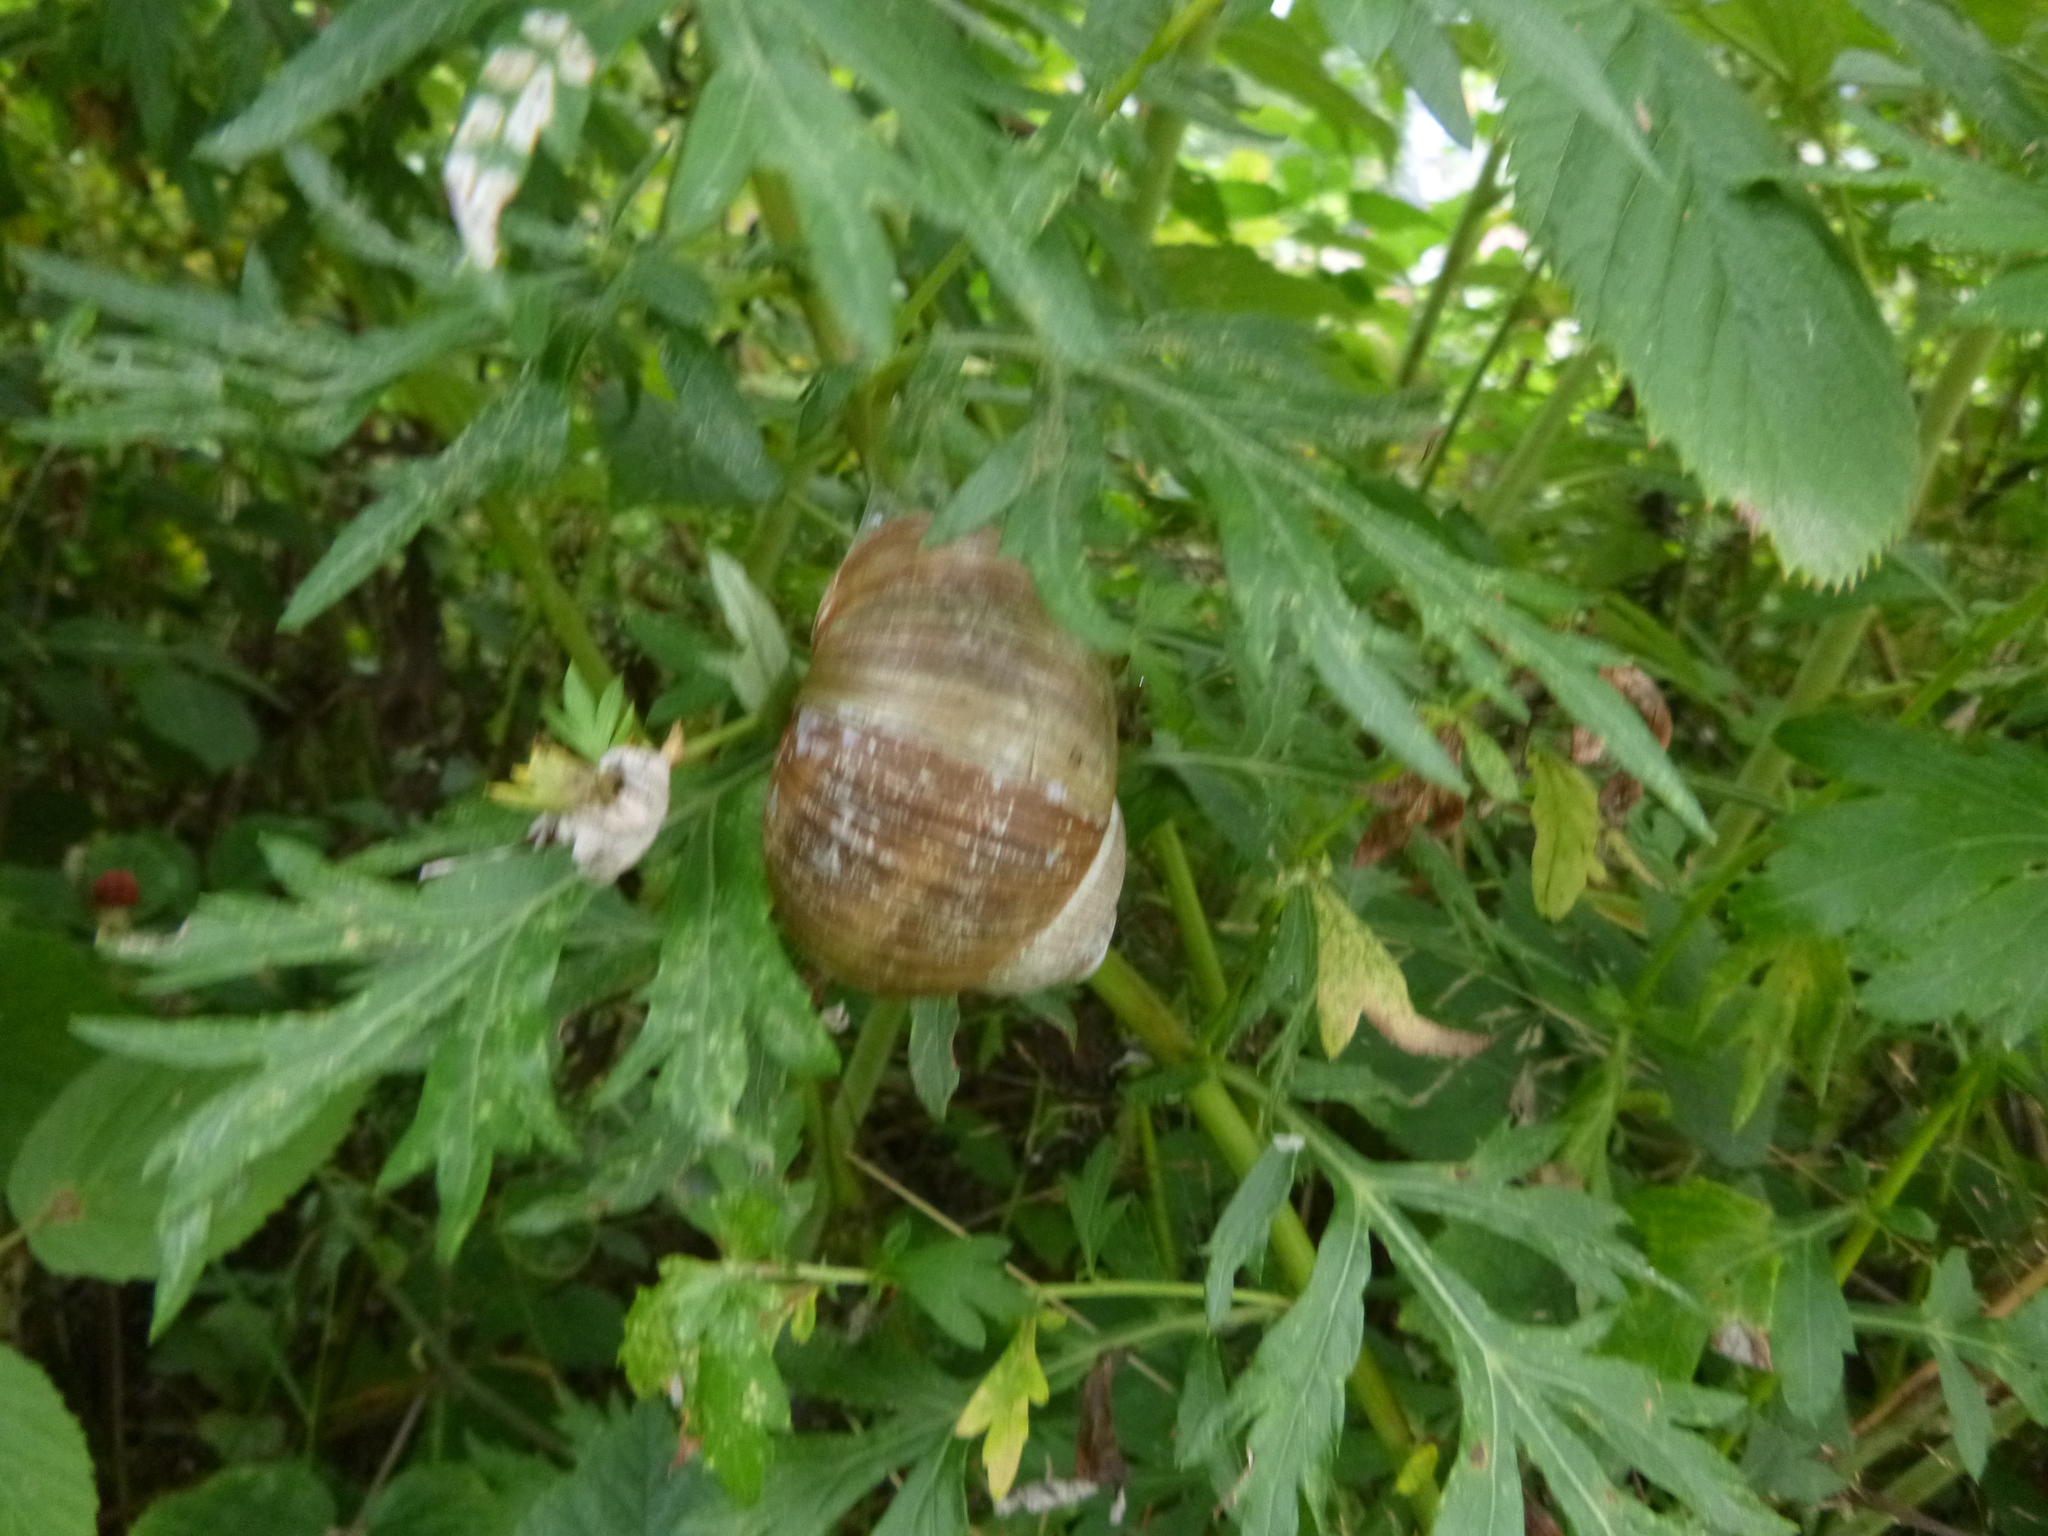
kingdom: Animalia
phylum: Mollusca
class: Gastropoda
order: Stylommatophora
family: Helicidae
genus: Helix
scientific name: Helix pomatia
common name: Roman snail
